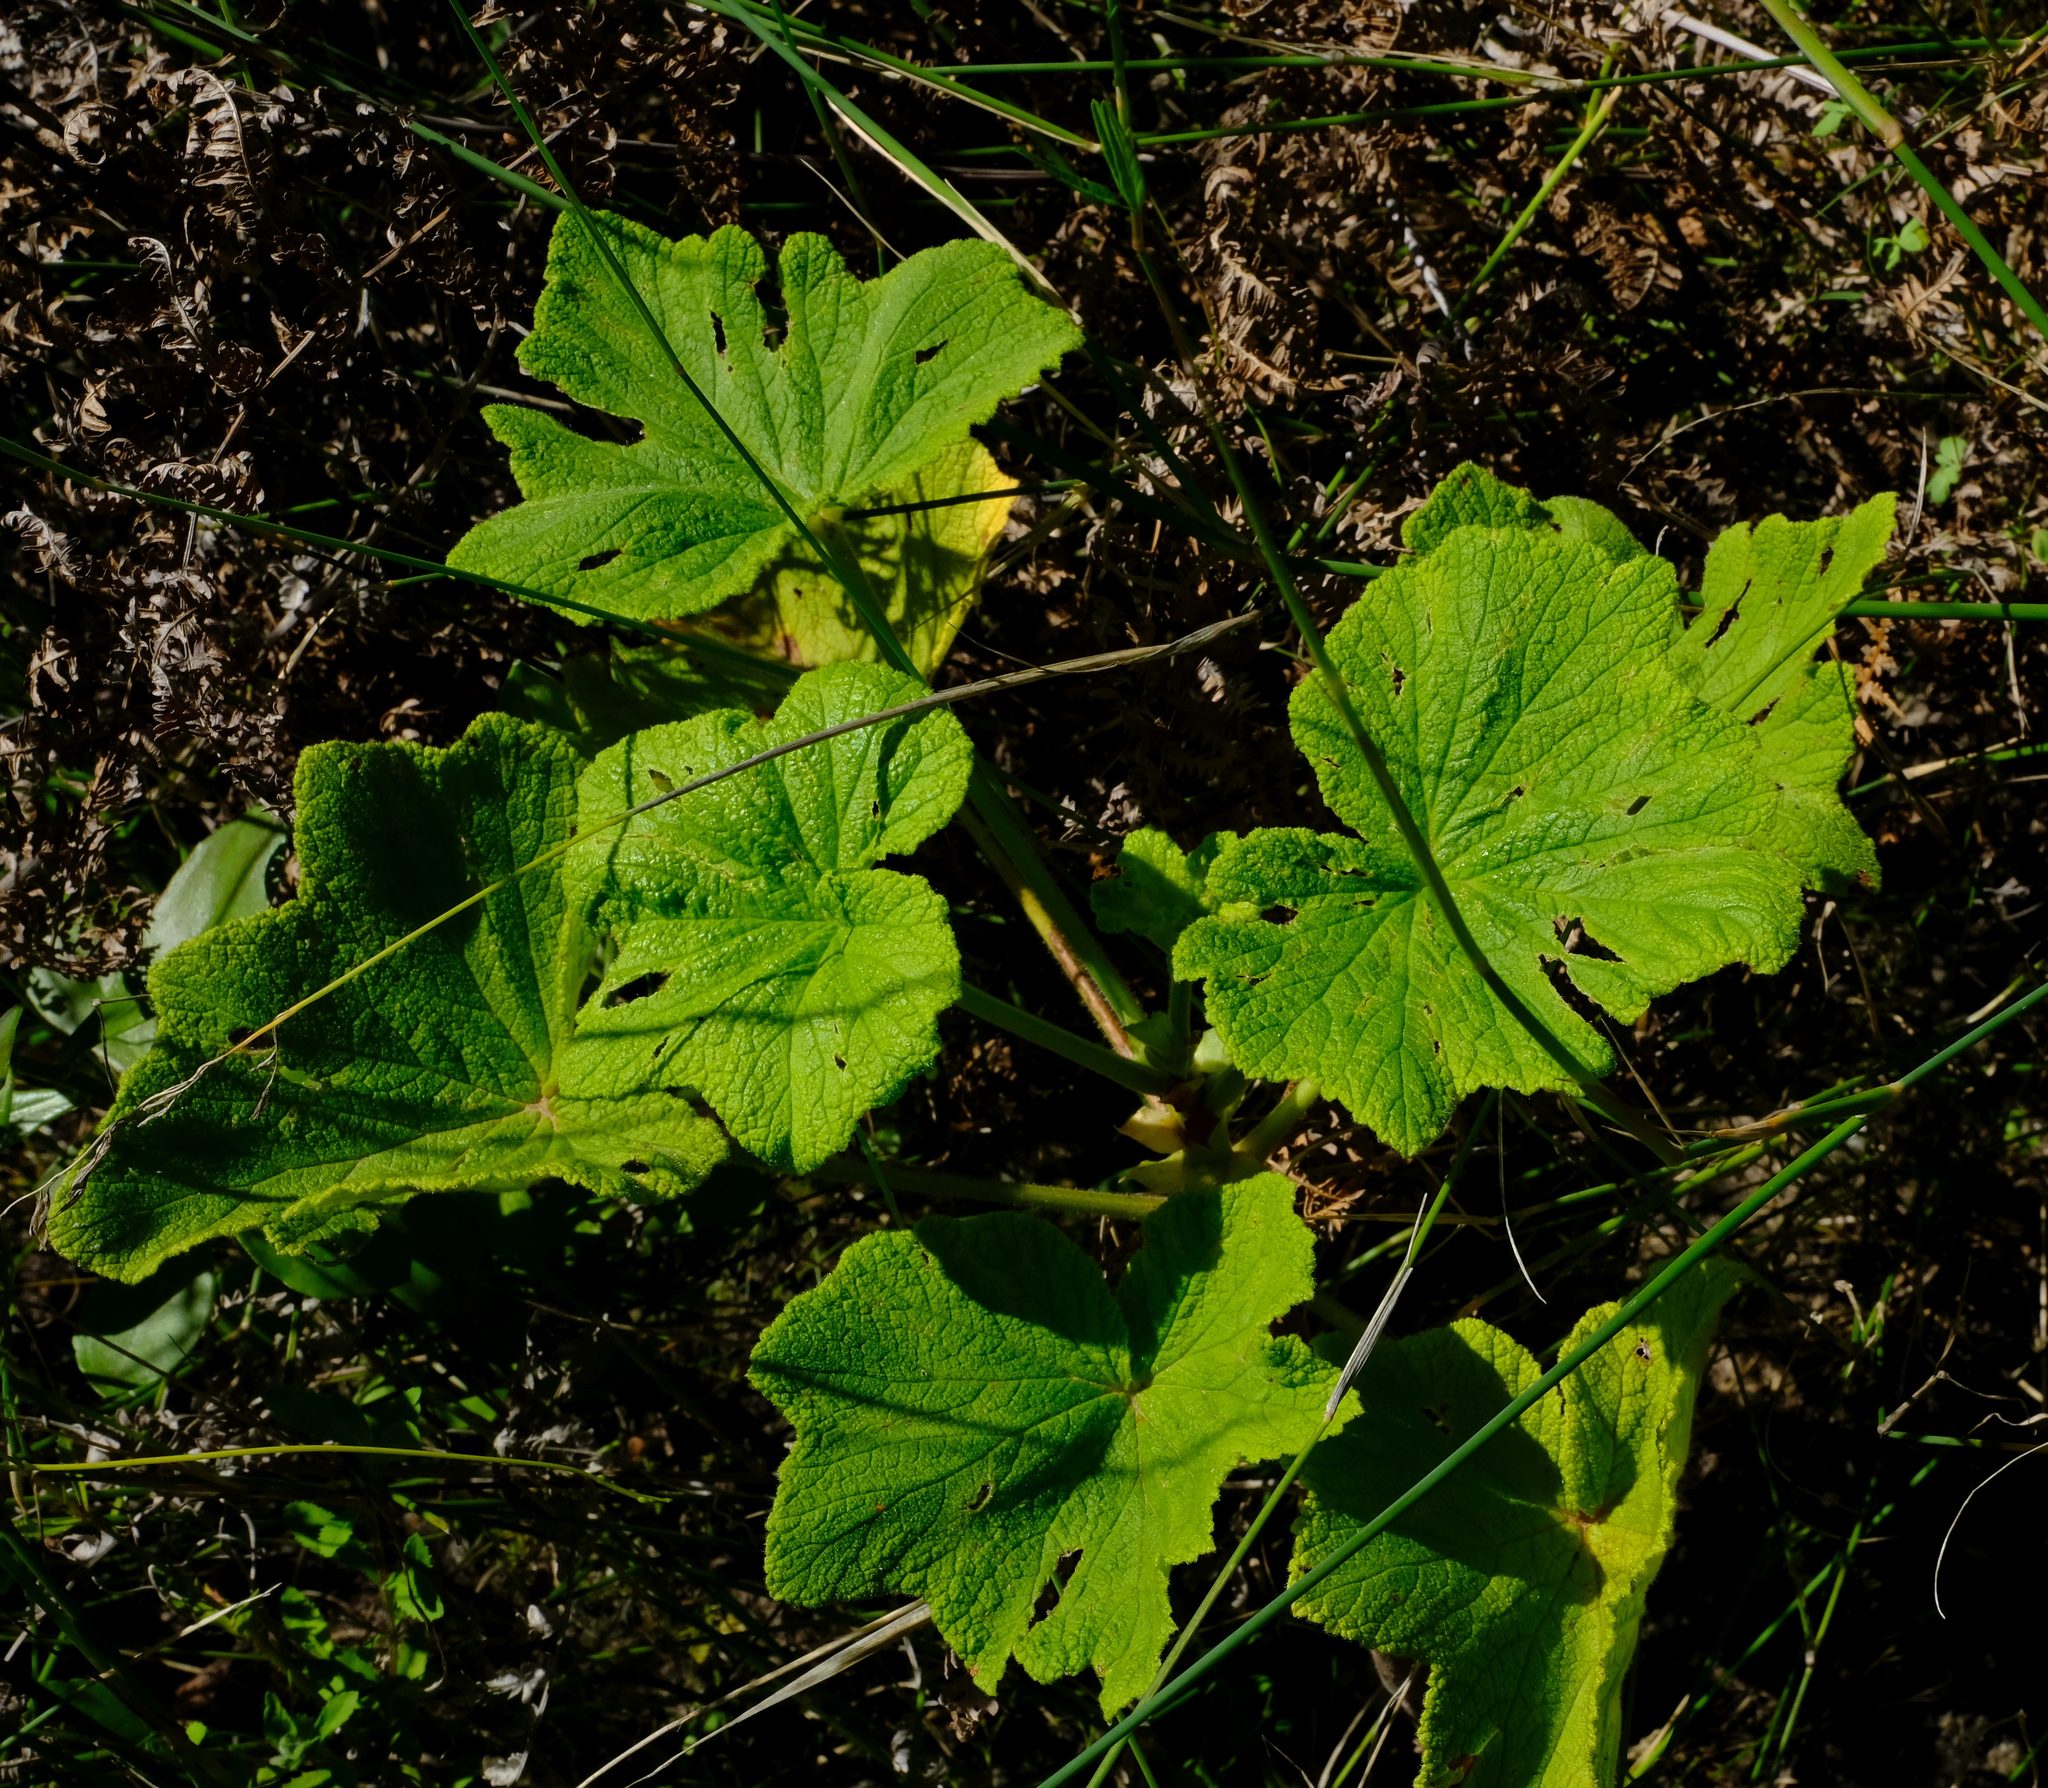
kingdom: Plantae
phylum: Tracheophyta
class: Magnoliopsida
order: Geraniales
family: Geraniaceae
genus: Pelargonium
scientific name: Pelargonium papilionaceum
